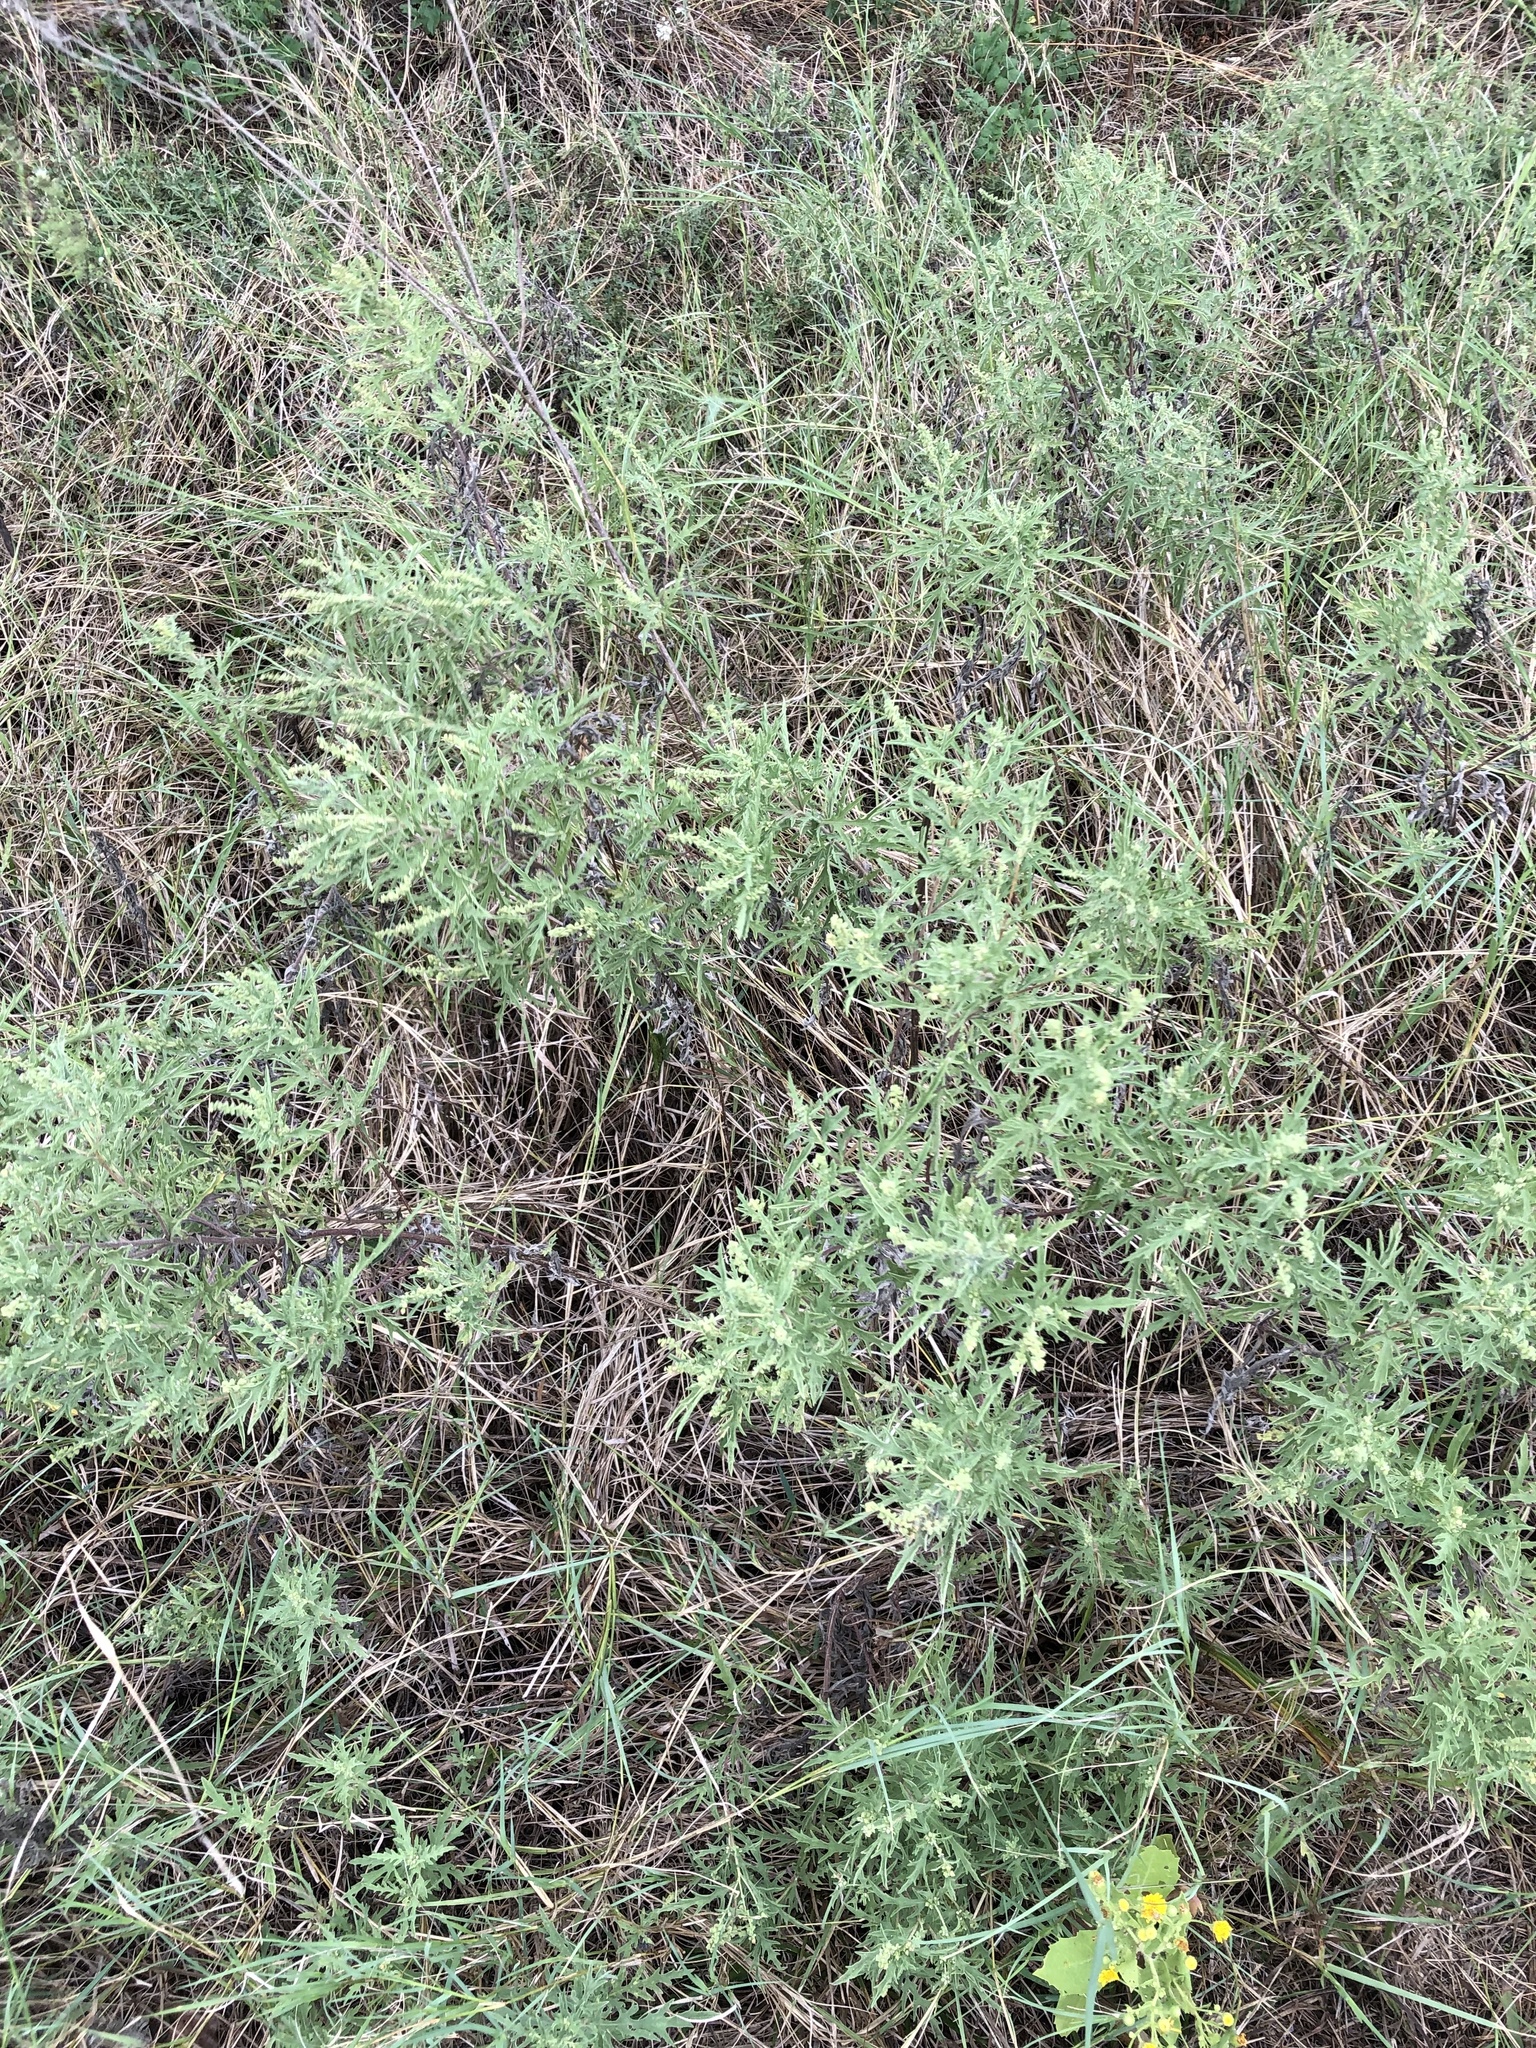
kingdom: Plantae
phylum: Tracheophyta
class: Magnoliopsida
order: Asterales
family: Asteraceae
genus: Ambrosia
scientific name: Ambrosia psilostachya
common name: Perennial ragweed
